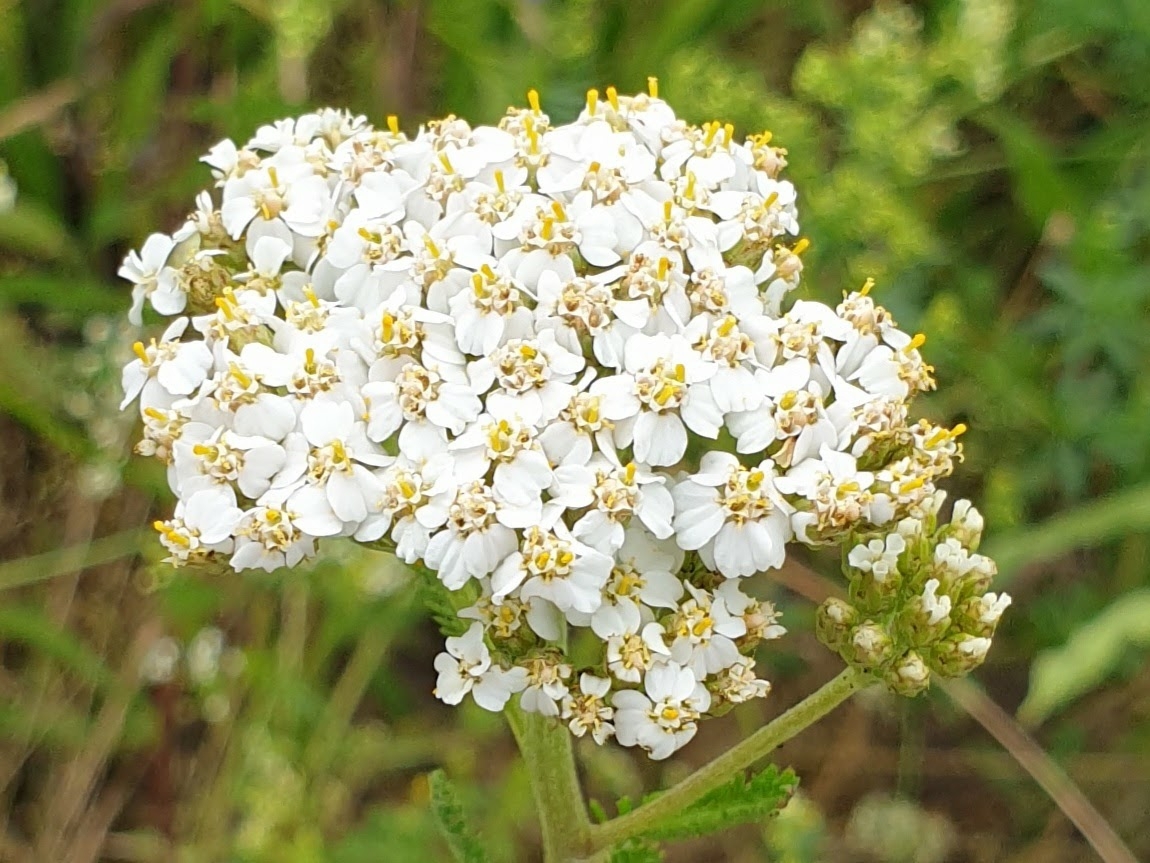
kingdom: Plantae
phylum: Tracheophyta
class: Magnoliopsida
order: Asterales
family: Asteraceae
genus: Achillea
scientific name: Achillea millefolium
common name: Yarrow
